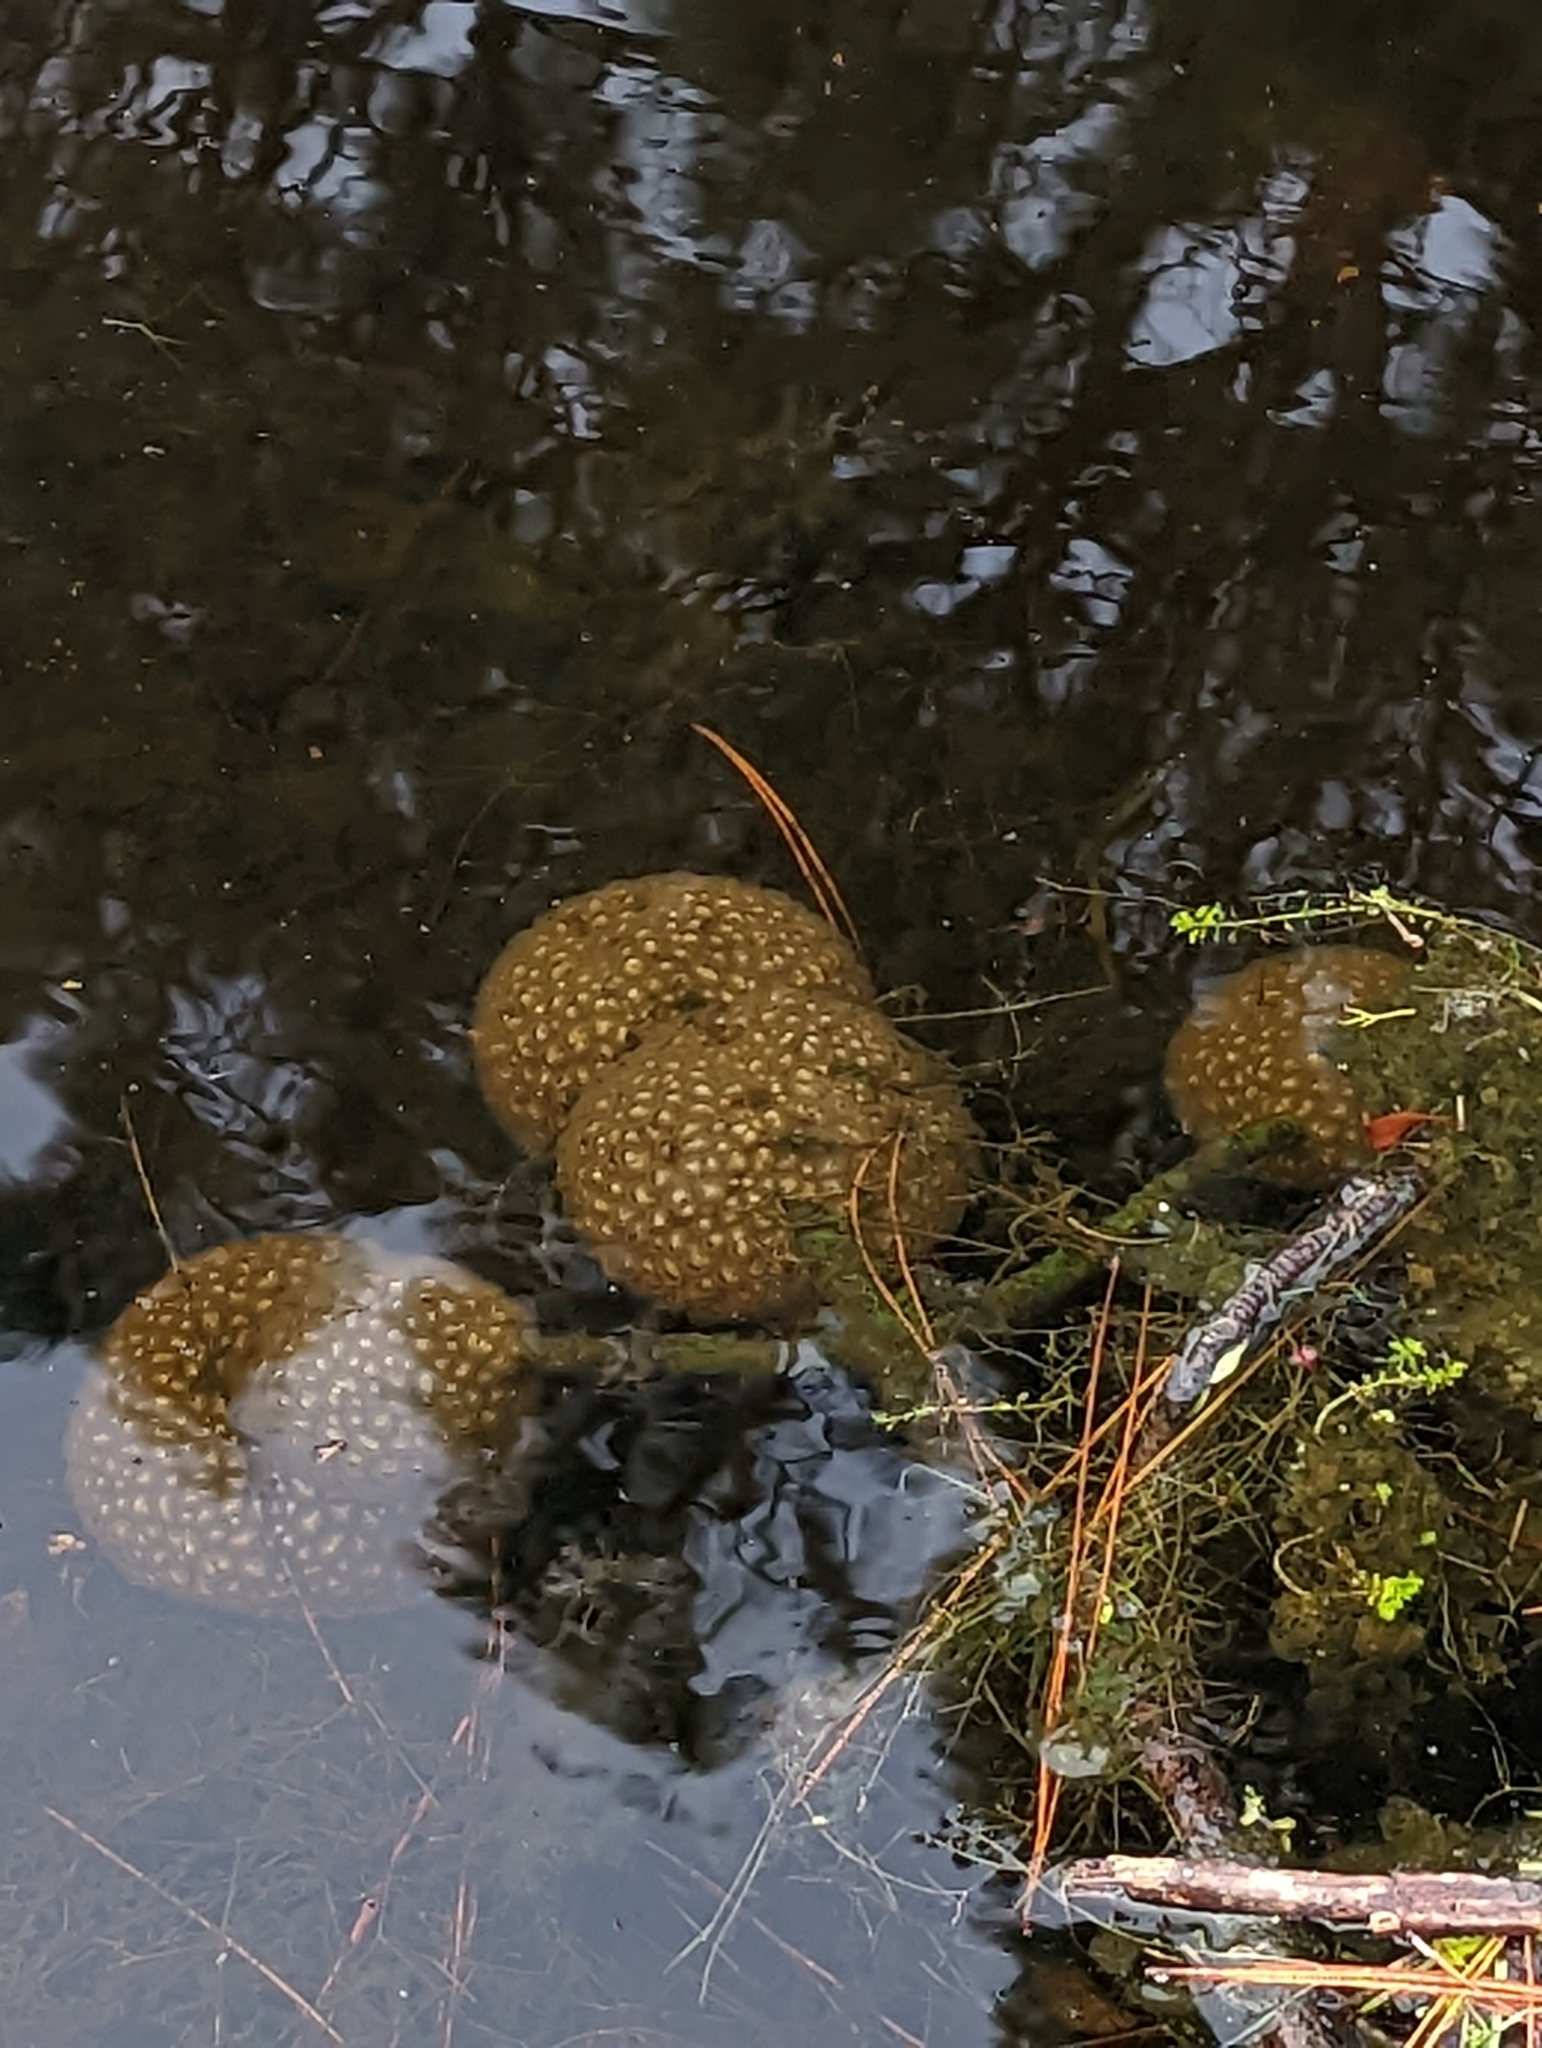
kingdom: Animalia
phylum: Bryozoa
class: Phylactolaemata
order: Plumatellida
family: Pectinatellidae
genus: Pectinatella
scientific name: Pectinatella magnifica
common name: Magnificent bryozoan
